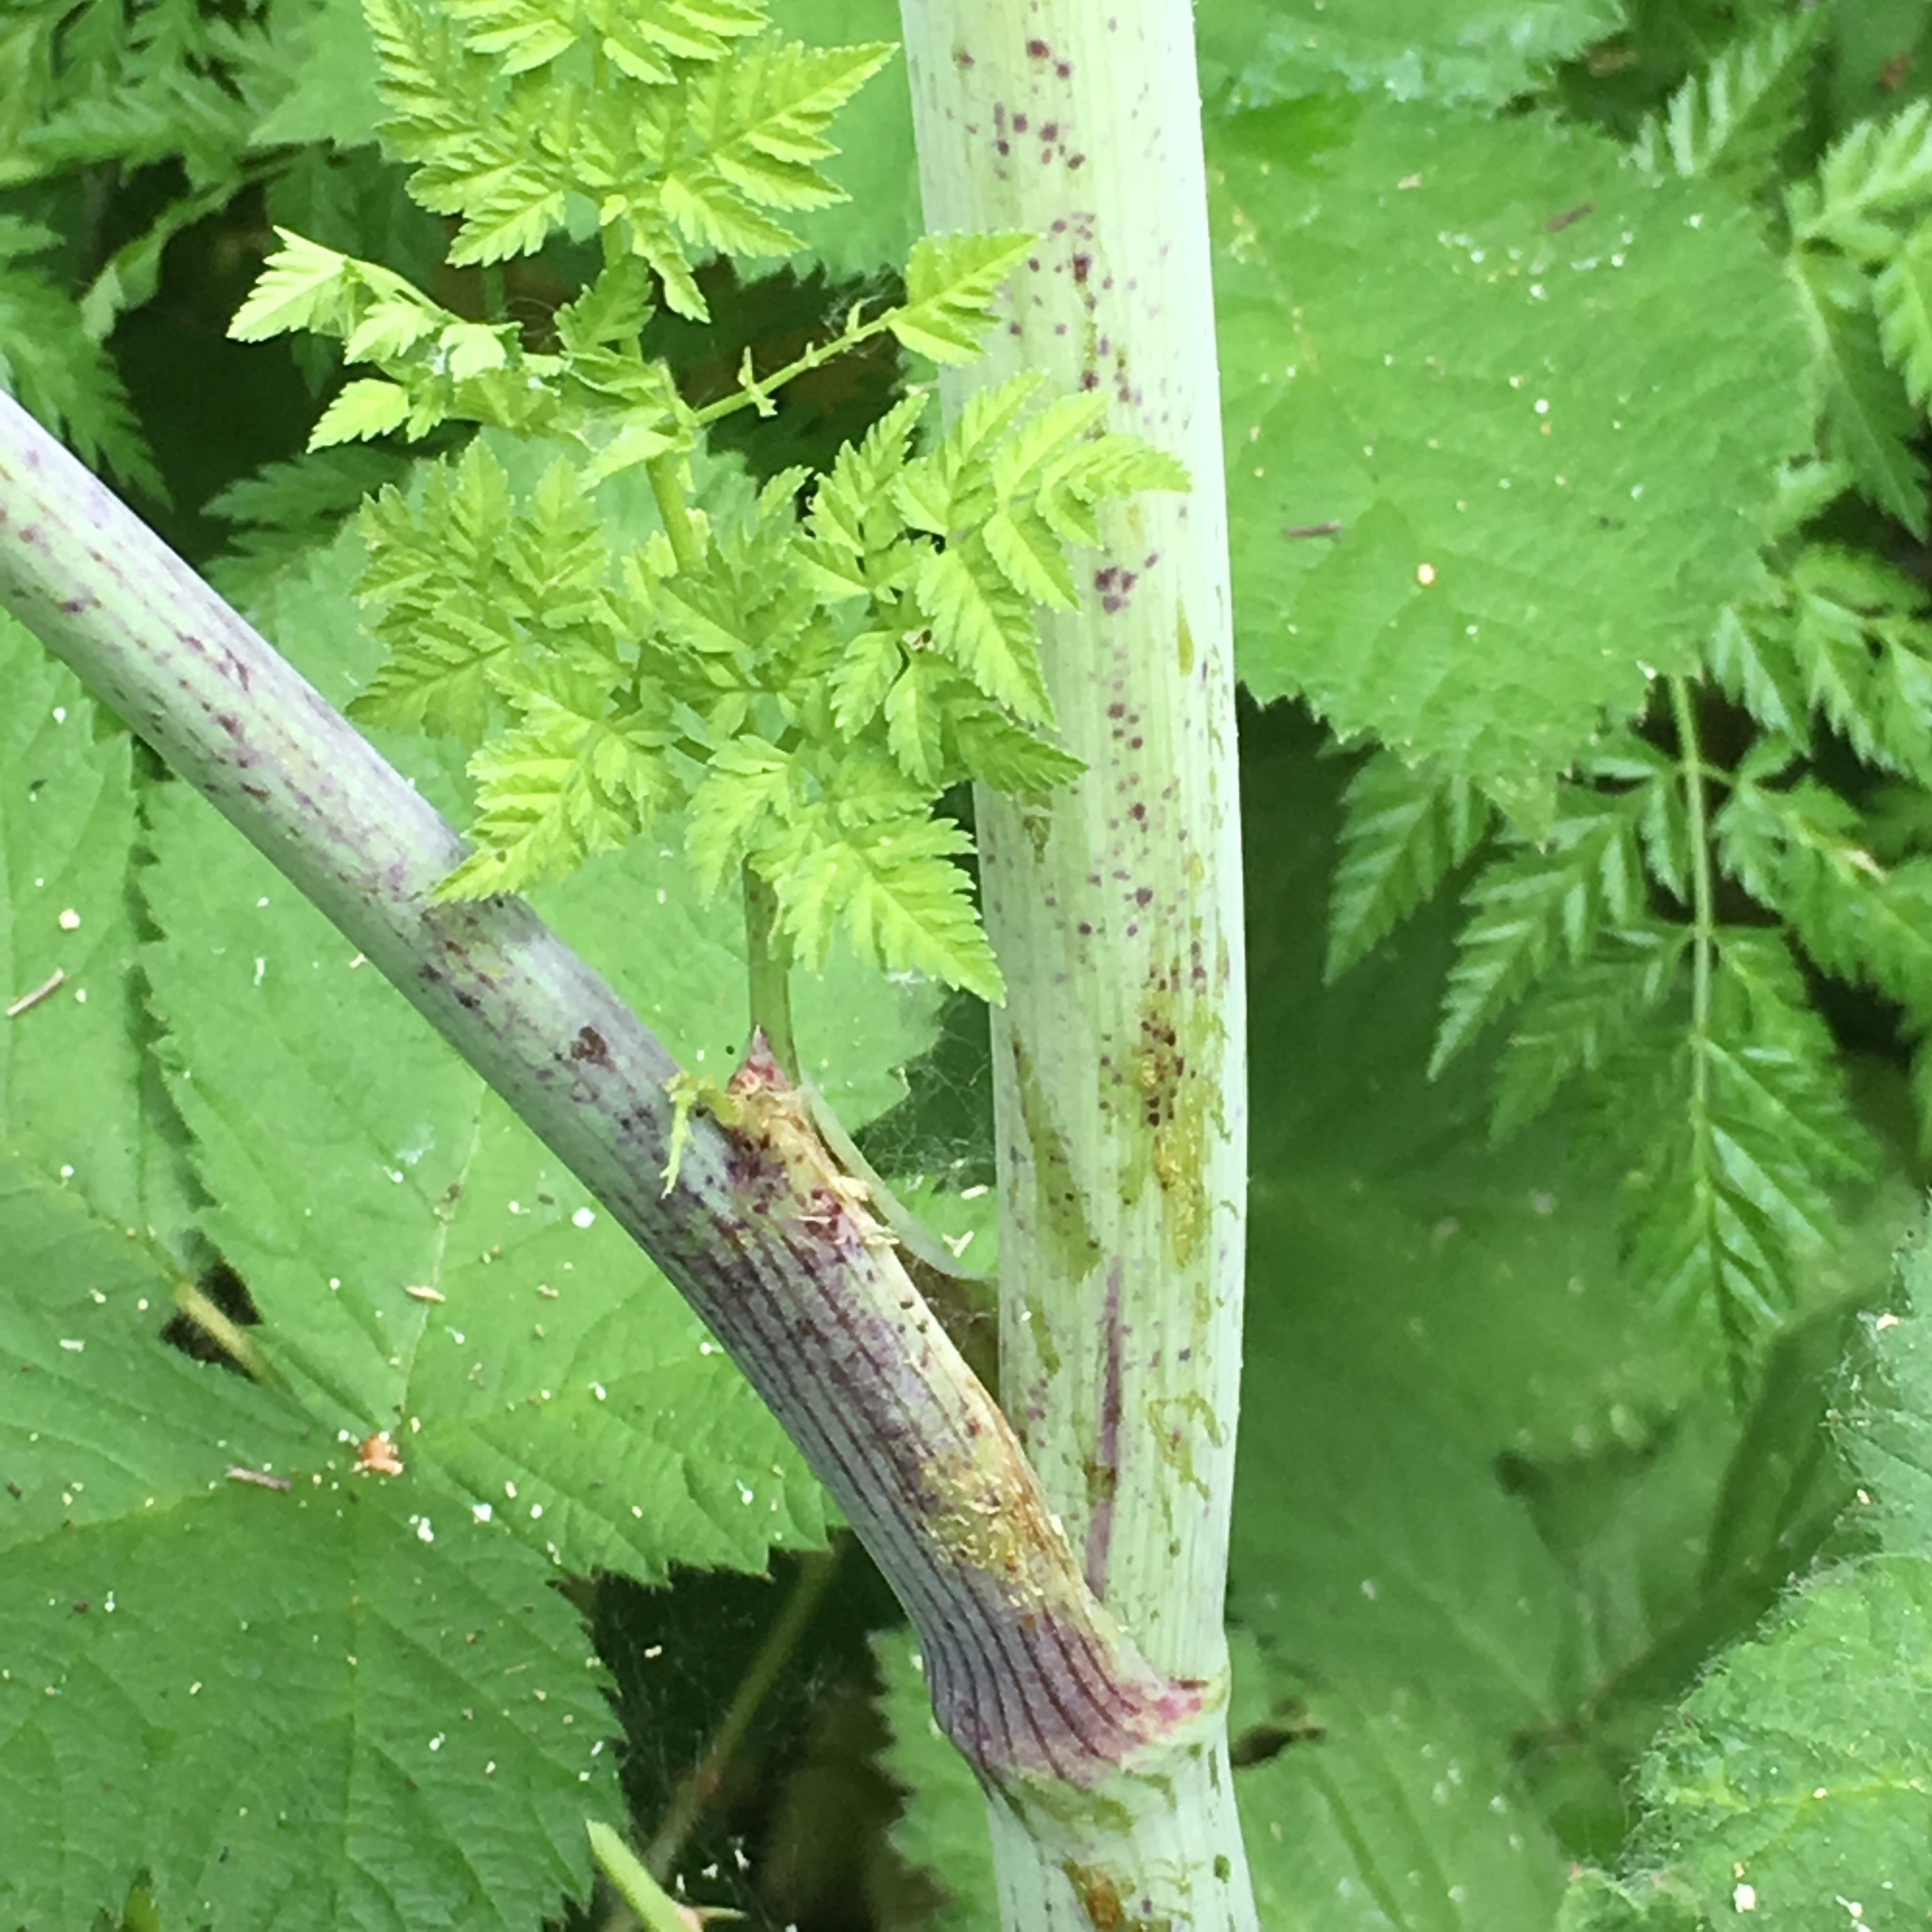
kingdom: Plantae
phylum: Tracheophyta
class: Magnoliopsida
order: Apiales
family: Apiaceae
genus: Conium
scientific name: Conium maculatum
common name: Hemlock
